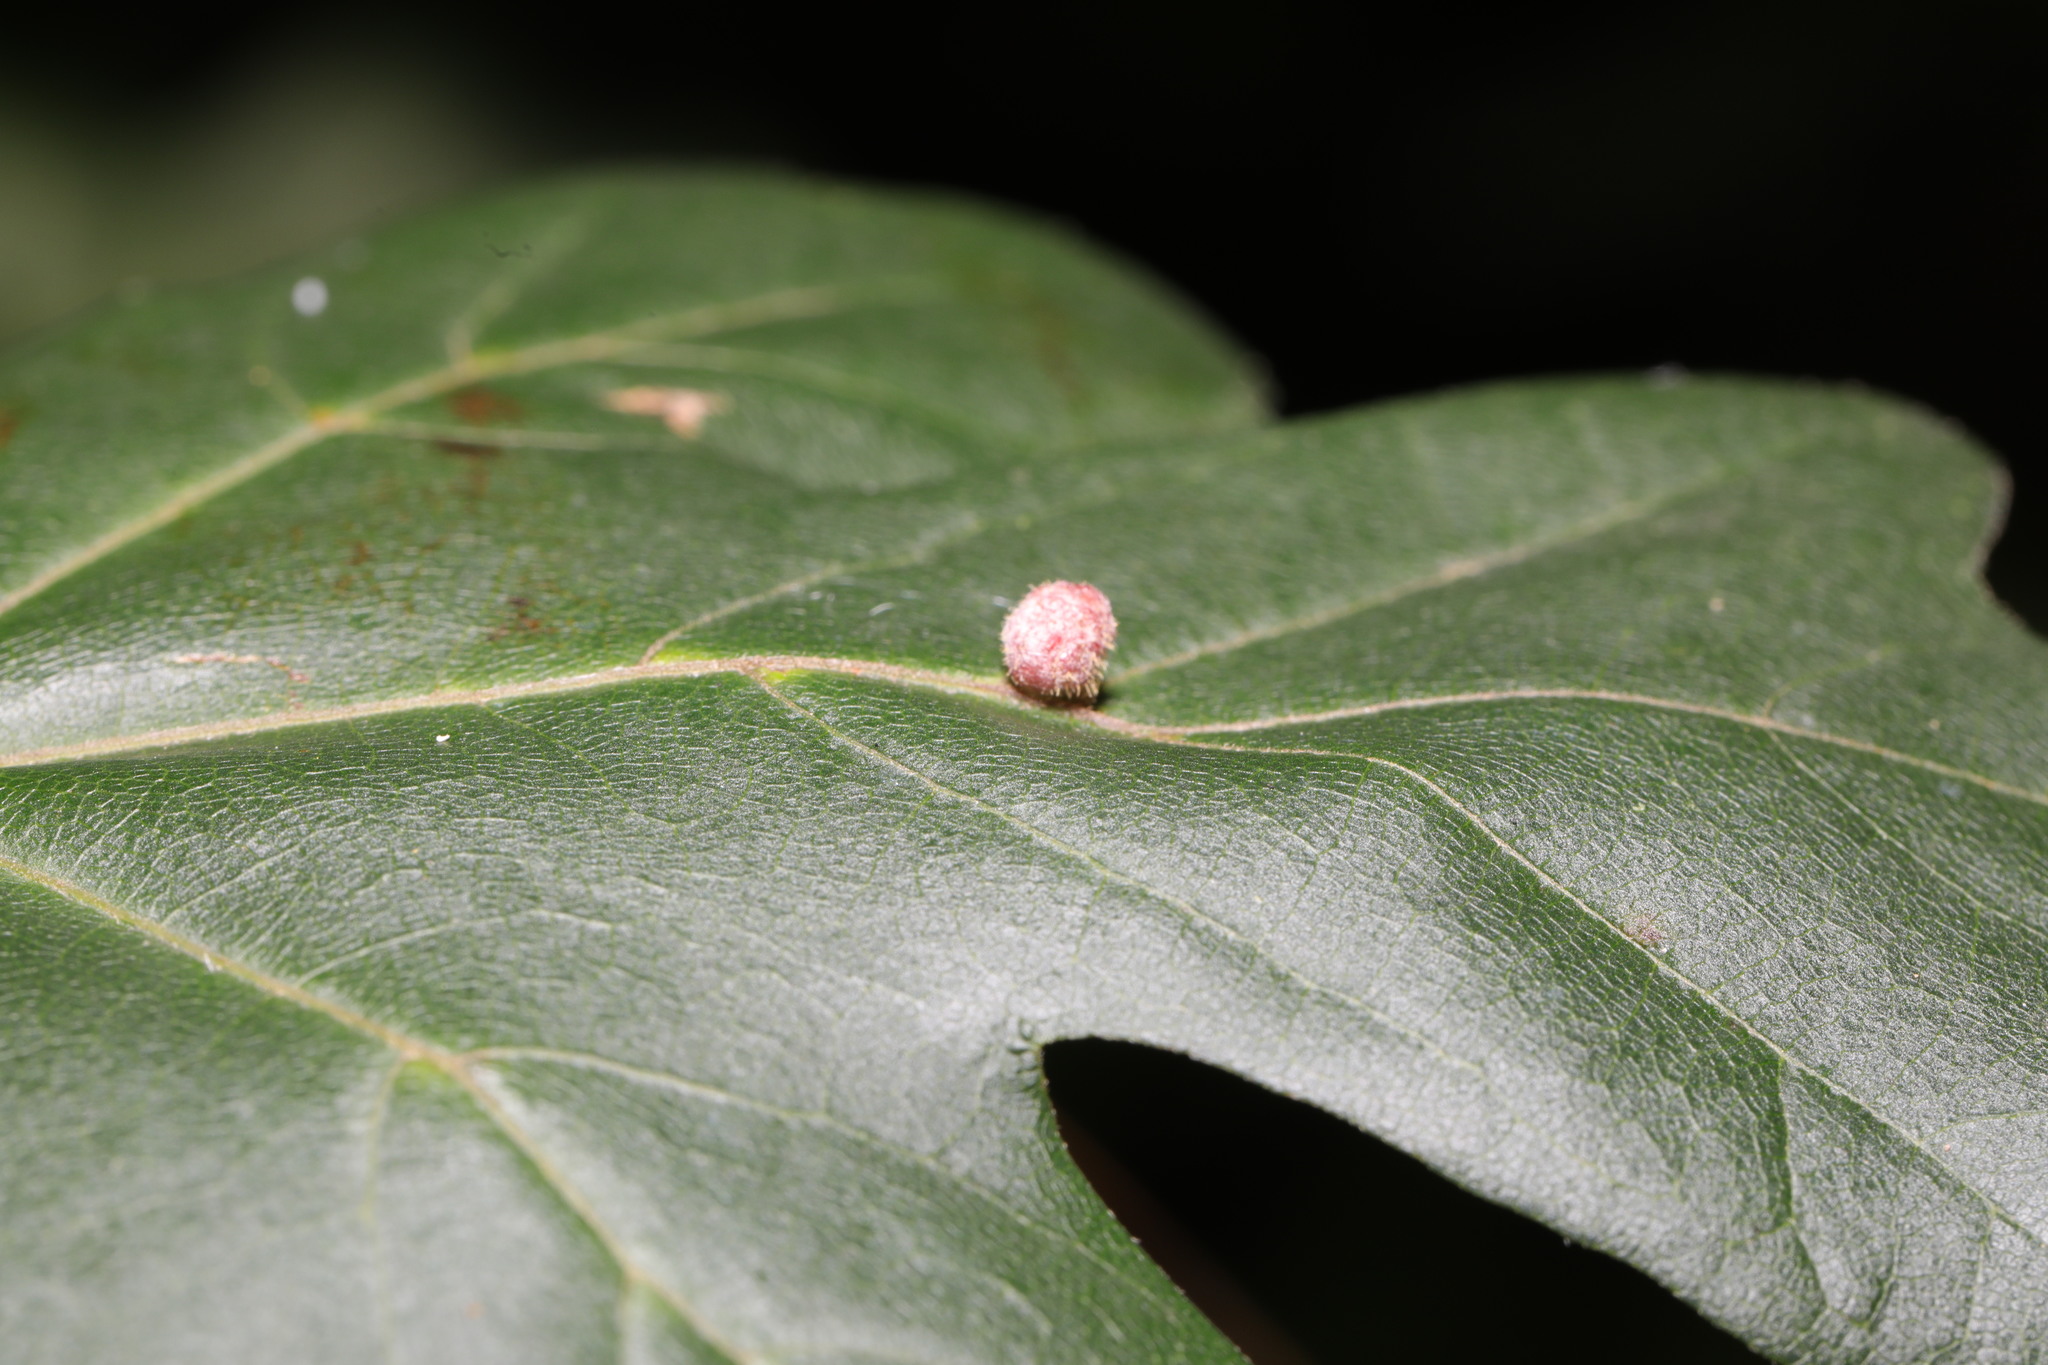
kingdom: Animalia
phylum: Arthropoda
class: Arachnida
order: Trombidiformes
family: Eriophyidae
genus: Aceria
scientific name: Aceria macrochelus
